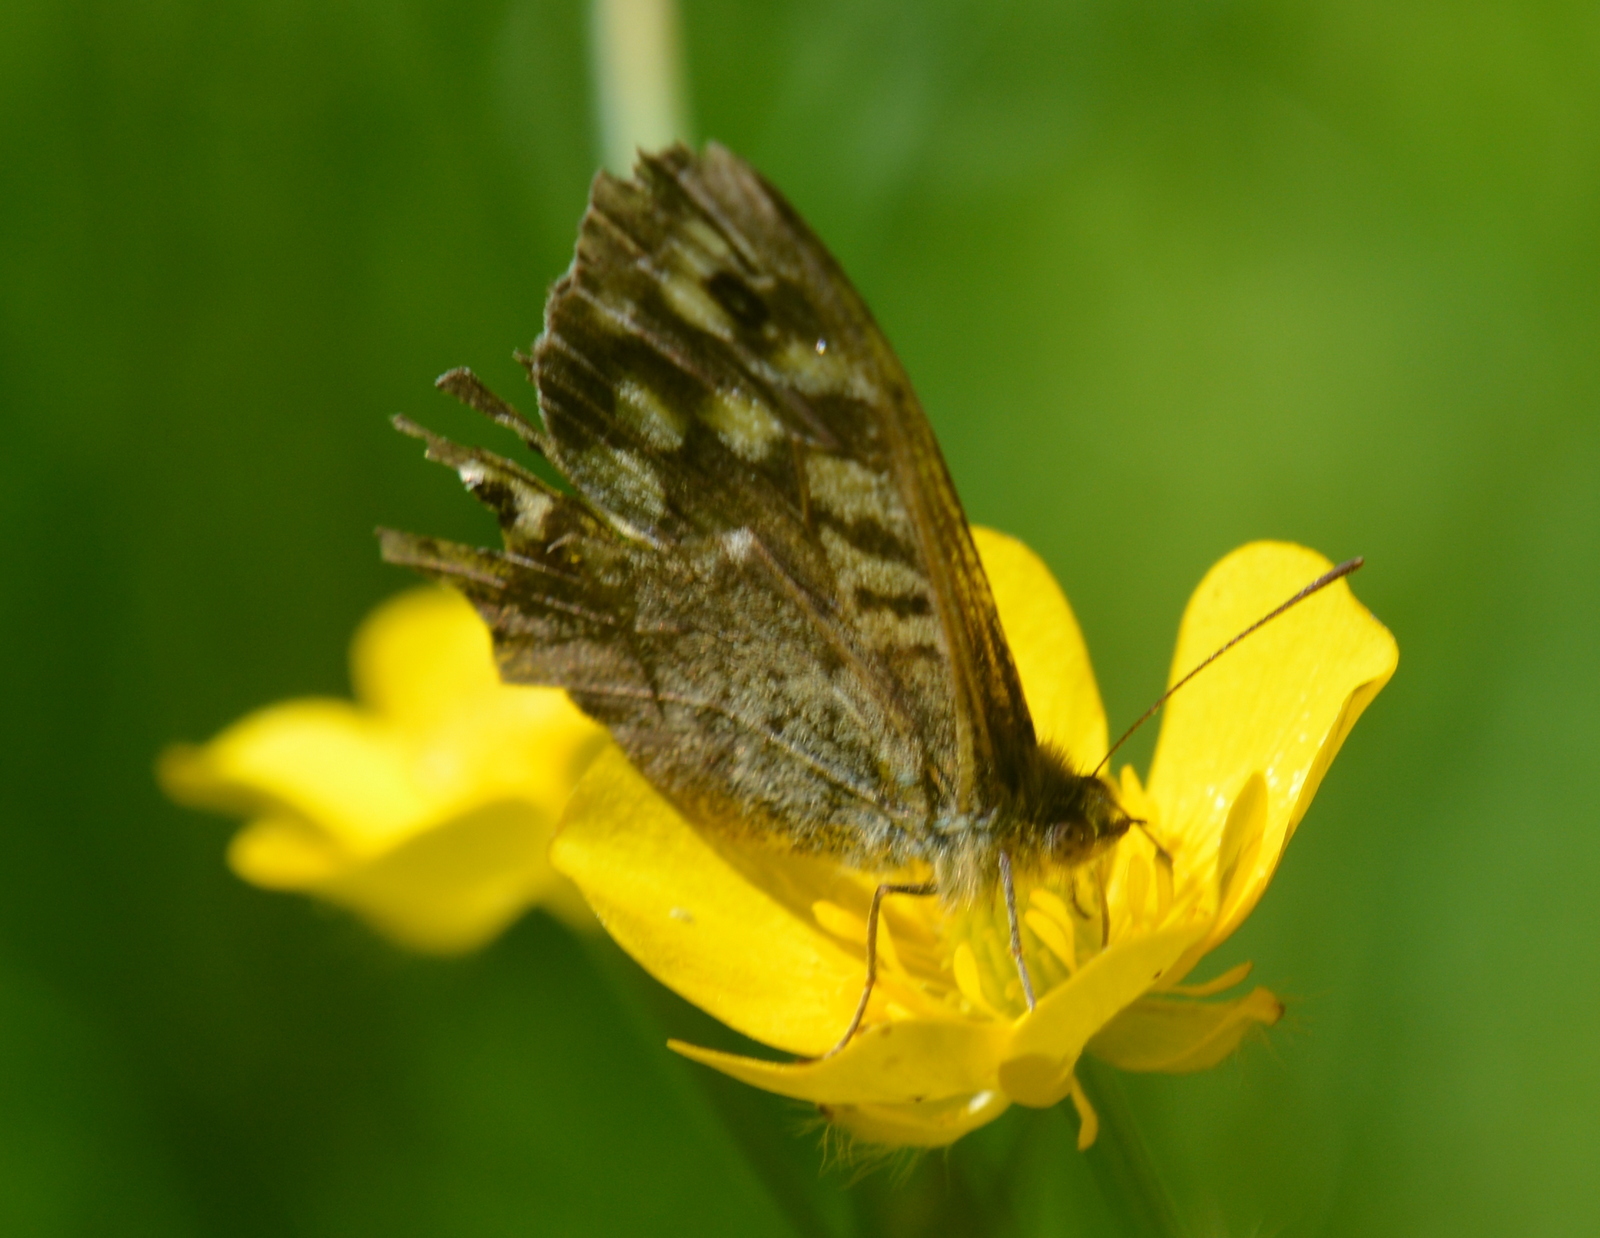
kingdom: Animalia
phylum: Arthropoda
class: Insecta
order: Lepidoptera
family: Nymphalidae
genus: Pararge
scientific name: Pararge aegeria
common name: Speckled wood
